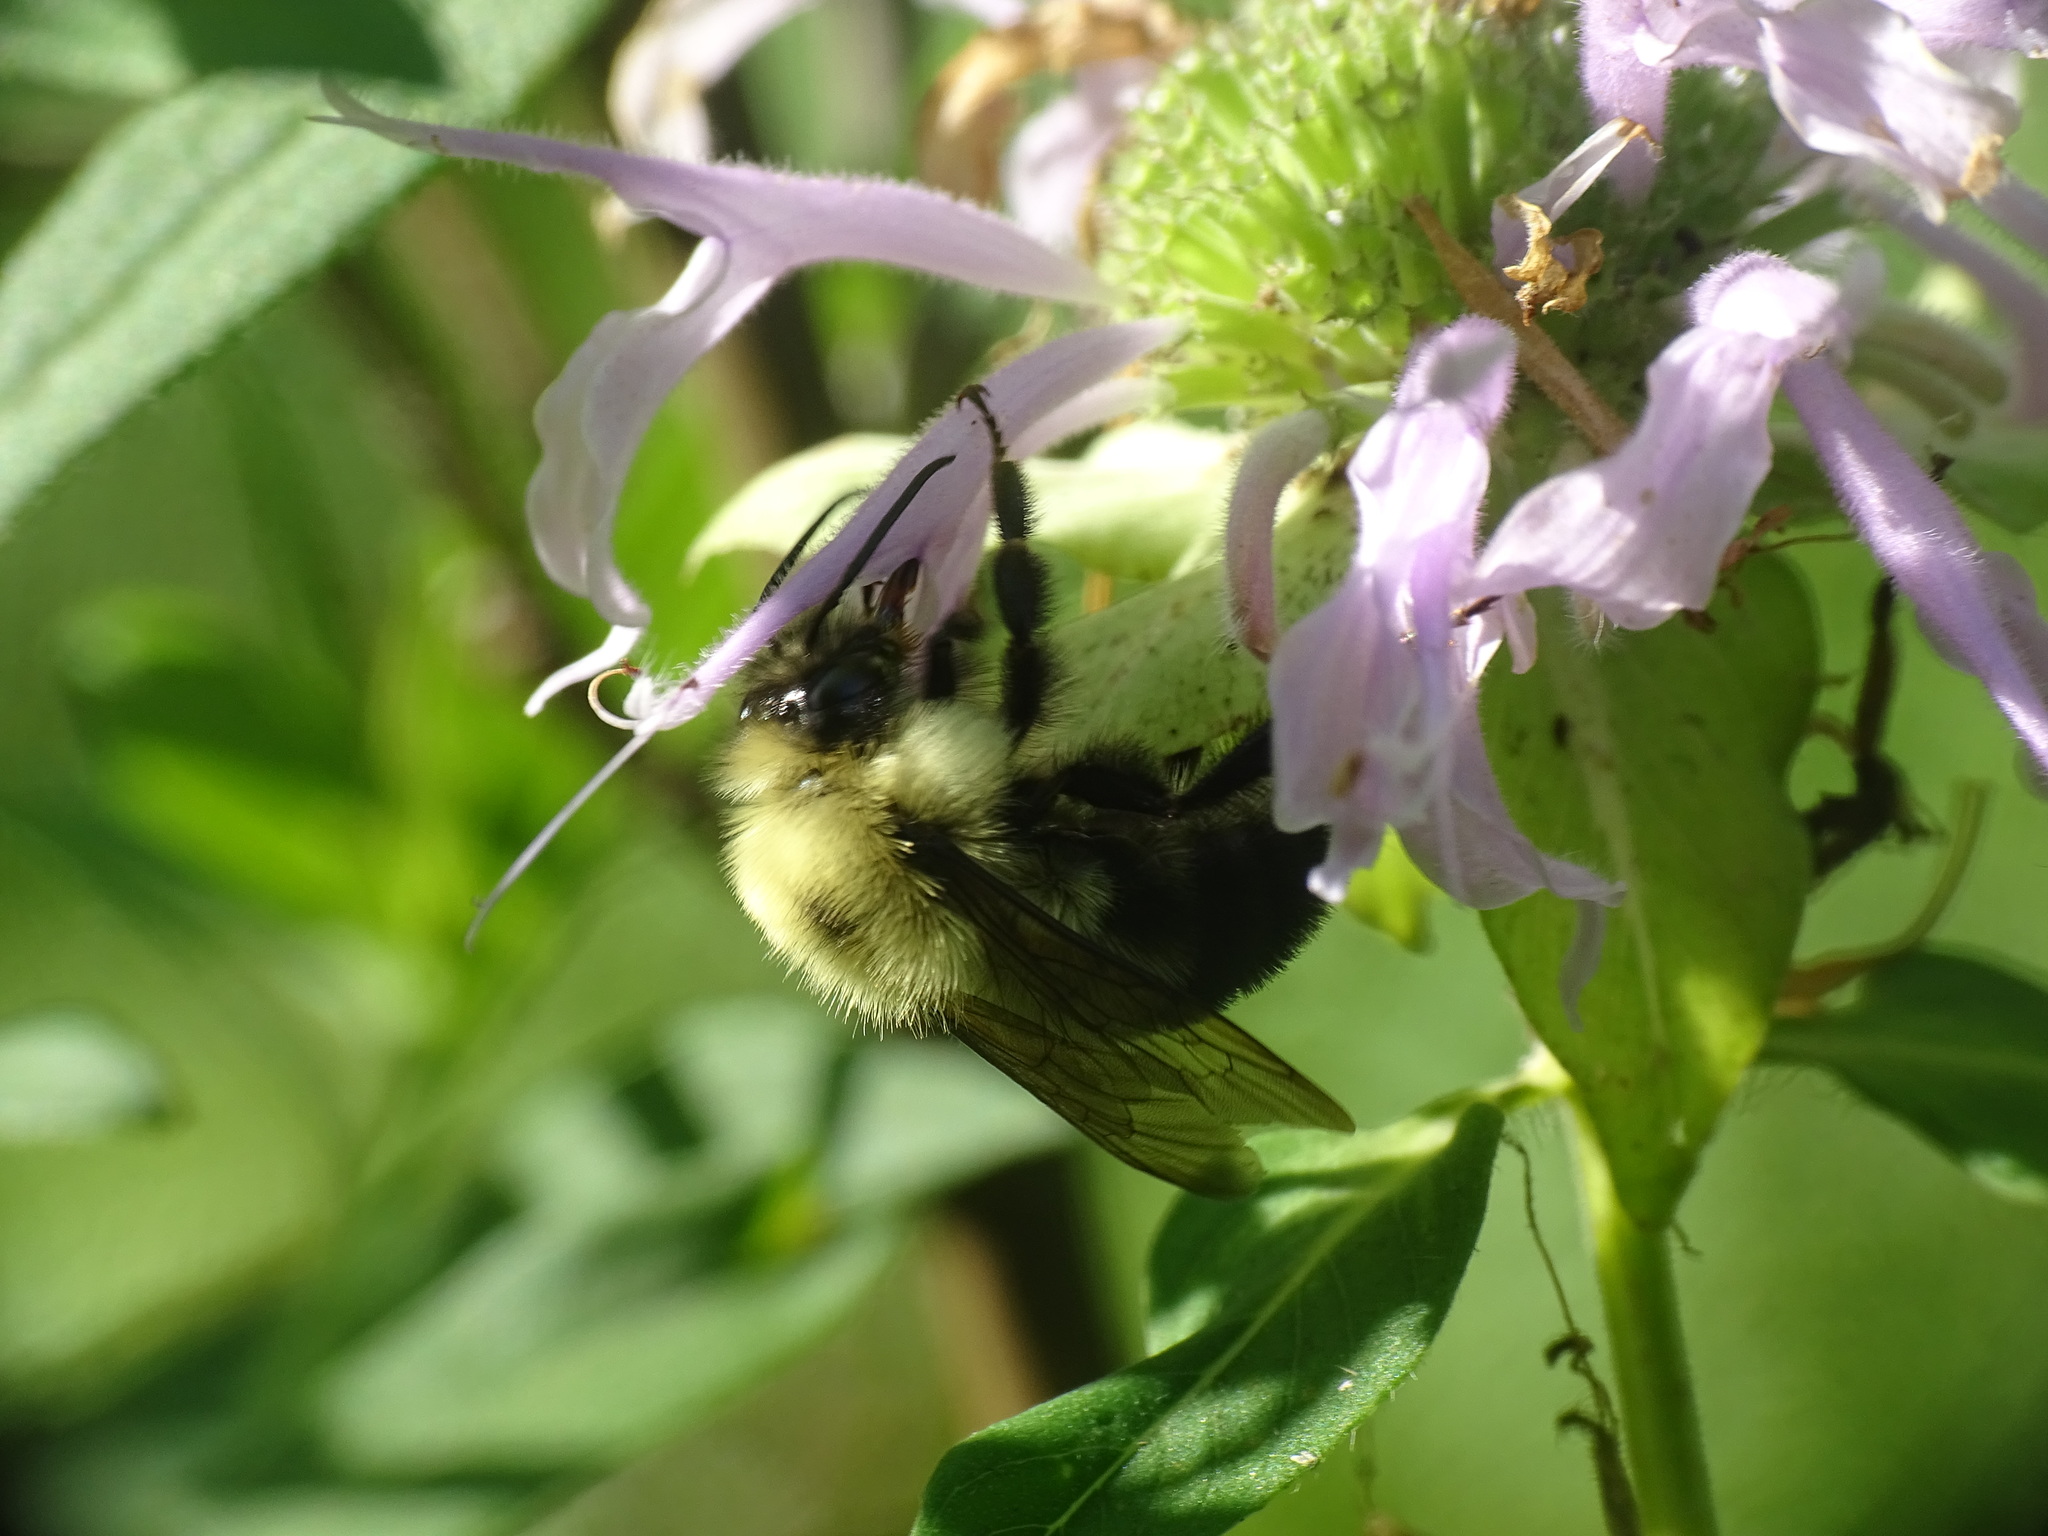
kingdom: Animalia
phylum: Arthropoda
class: Insecta
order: Hymenoptera
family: Apidae
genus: Bombus
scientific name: Bombus bimaculatus
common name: Two-spotted bumble bee
